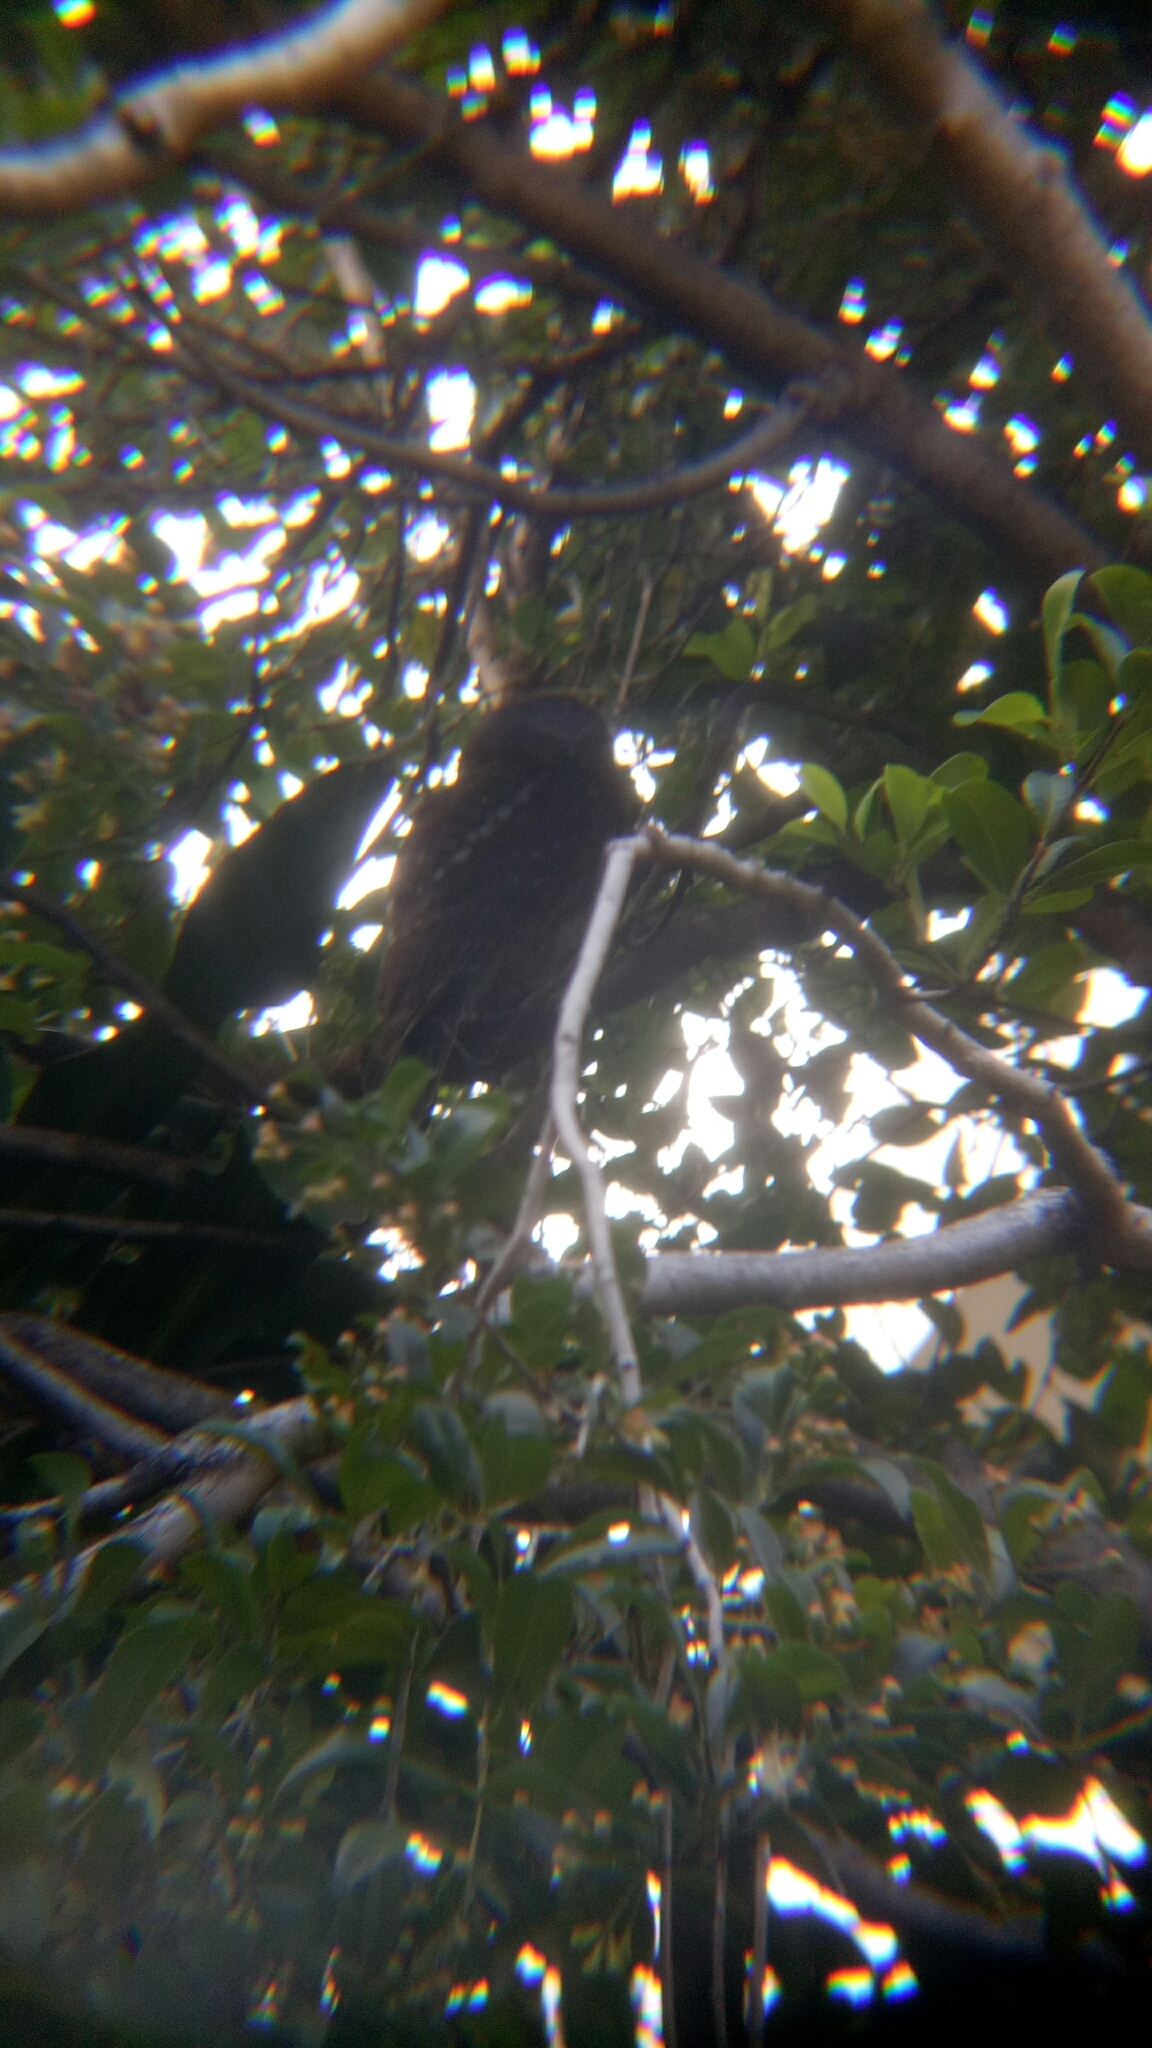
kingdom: Animalia
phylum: Chordata
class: Aves
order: Strigiformes
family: Strigidae
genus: Ninox
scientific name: Ninox boobook
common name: Southern boobook
